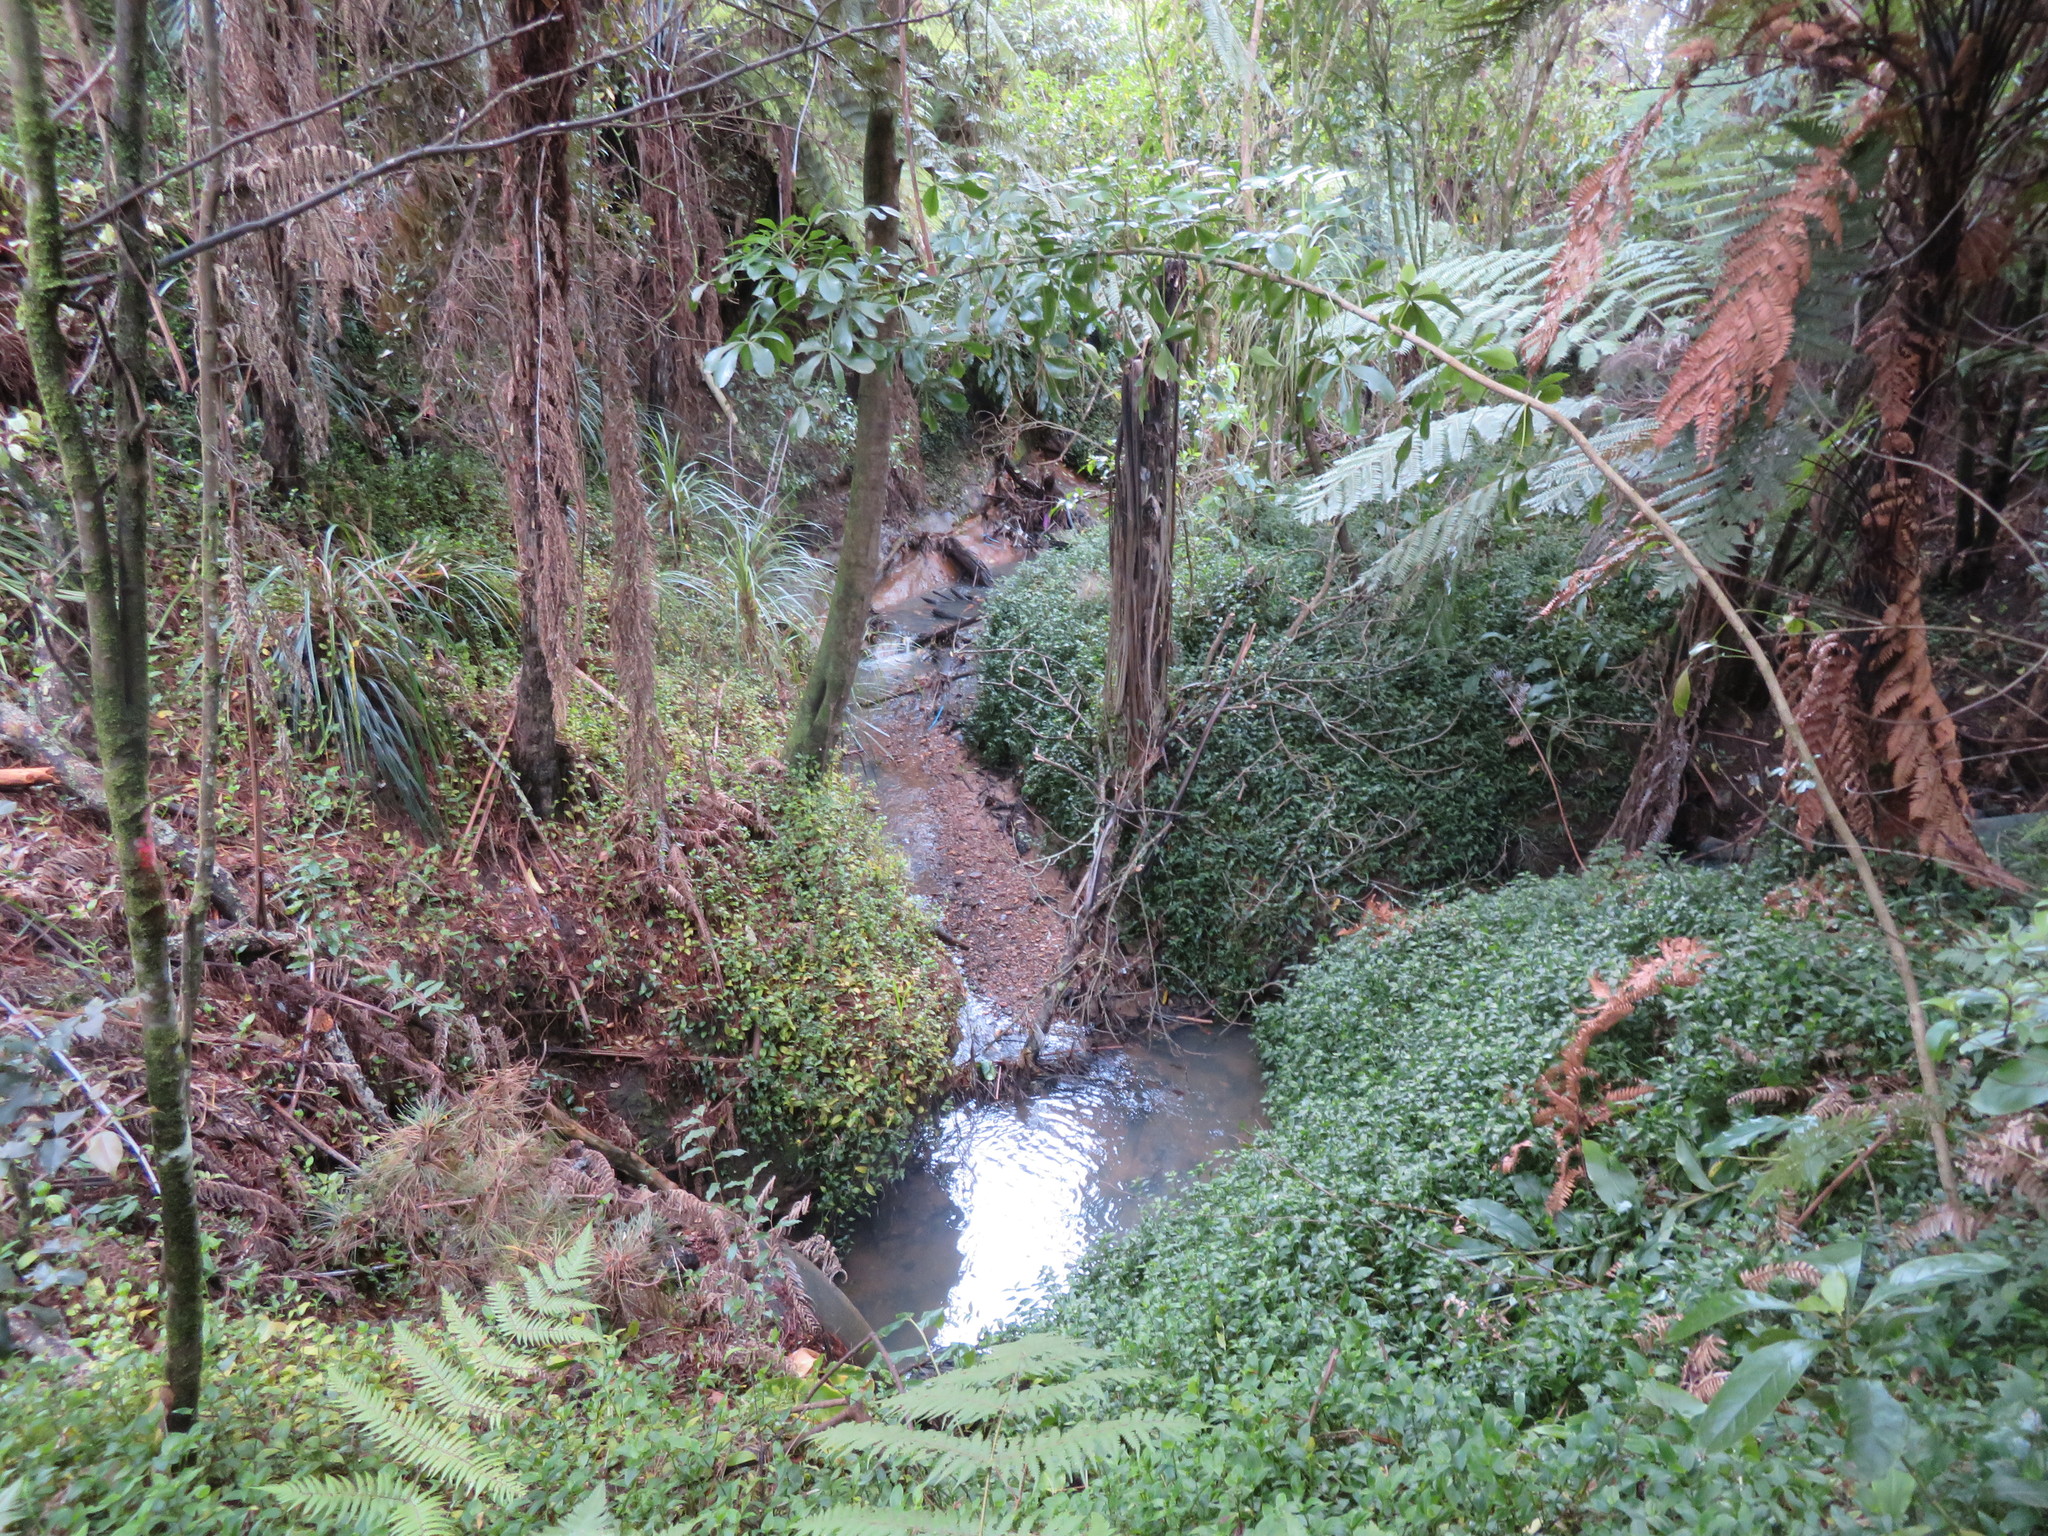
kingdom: Plantae
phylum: Tracheophyta
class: Liliopsida
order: Commelinales
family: Commelinaceae
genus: Tradescantia
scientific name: Tradescantia fluminensis
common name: Wandering-jew
